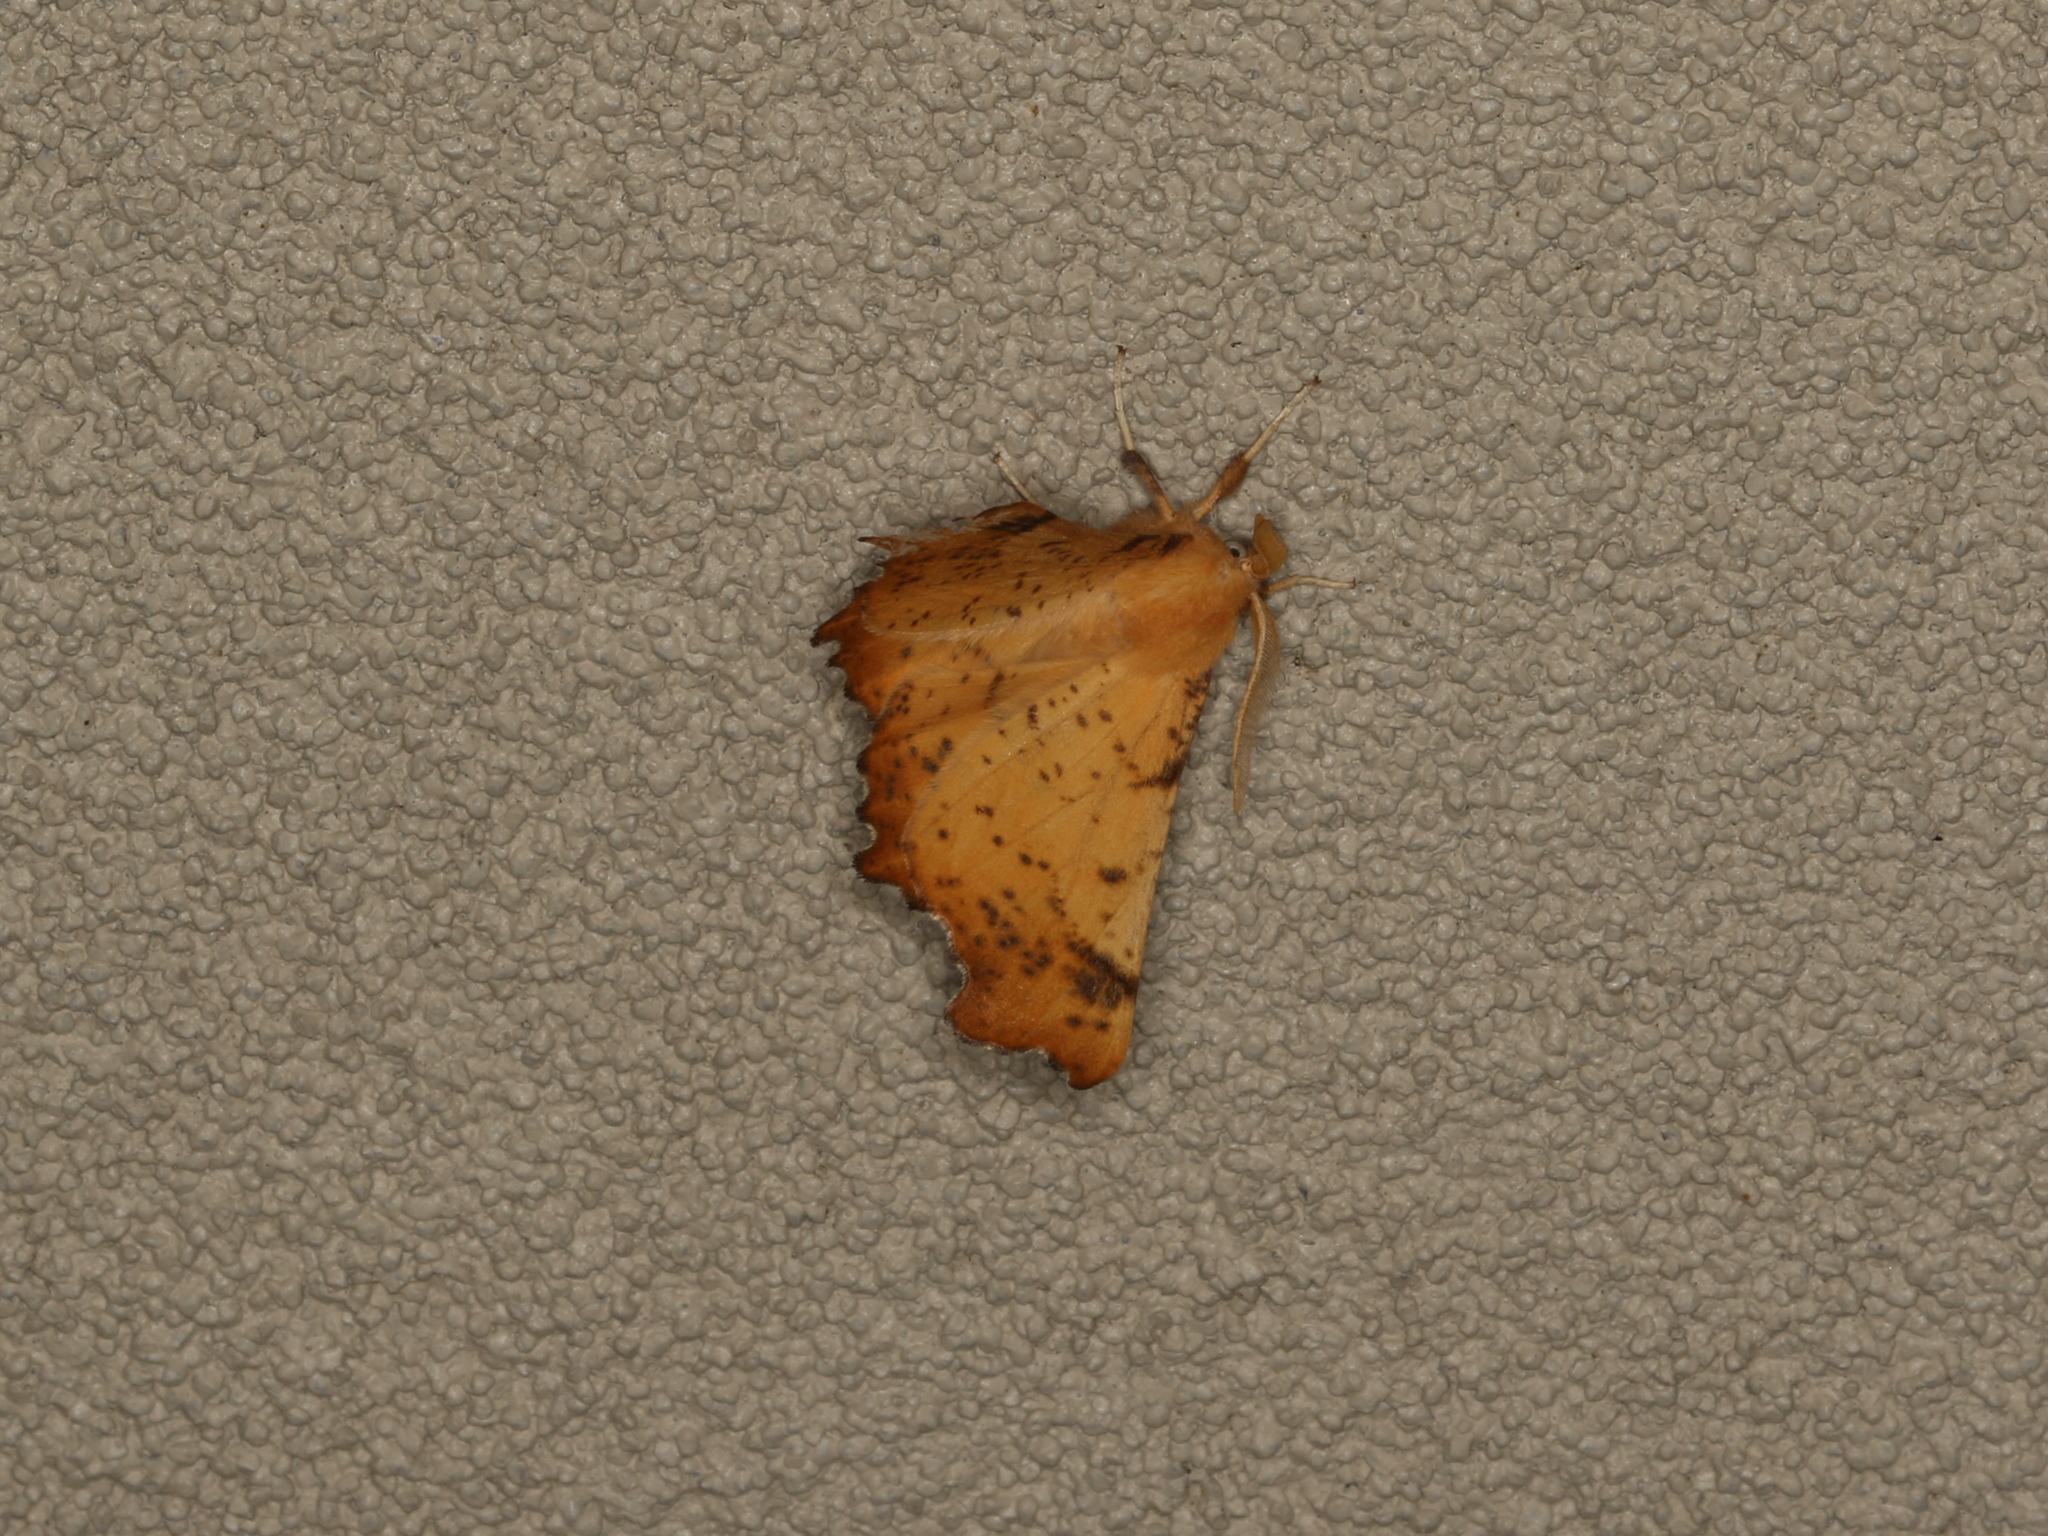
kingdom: Animalia
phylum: Arthropoda
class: Insecta
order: Lepidoptera
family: Geometridae
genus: Ennomos
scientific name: Ennomos magnaria
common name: Maple spanworm
